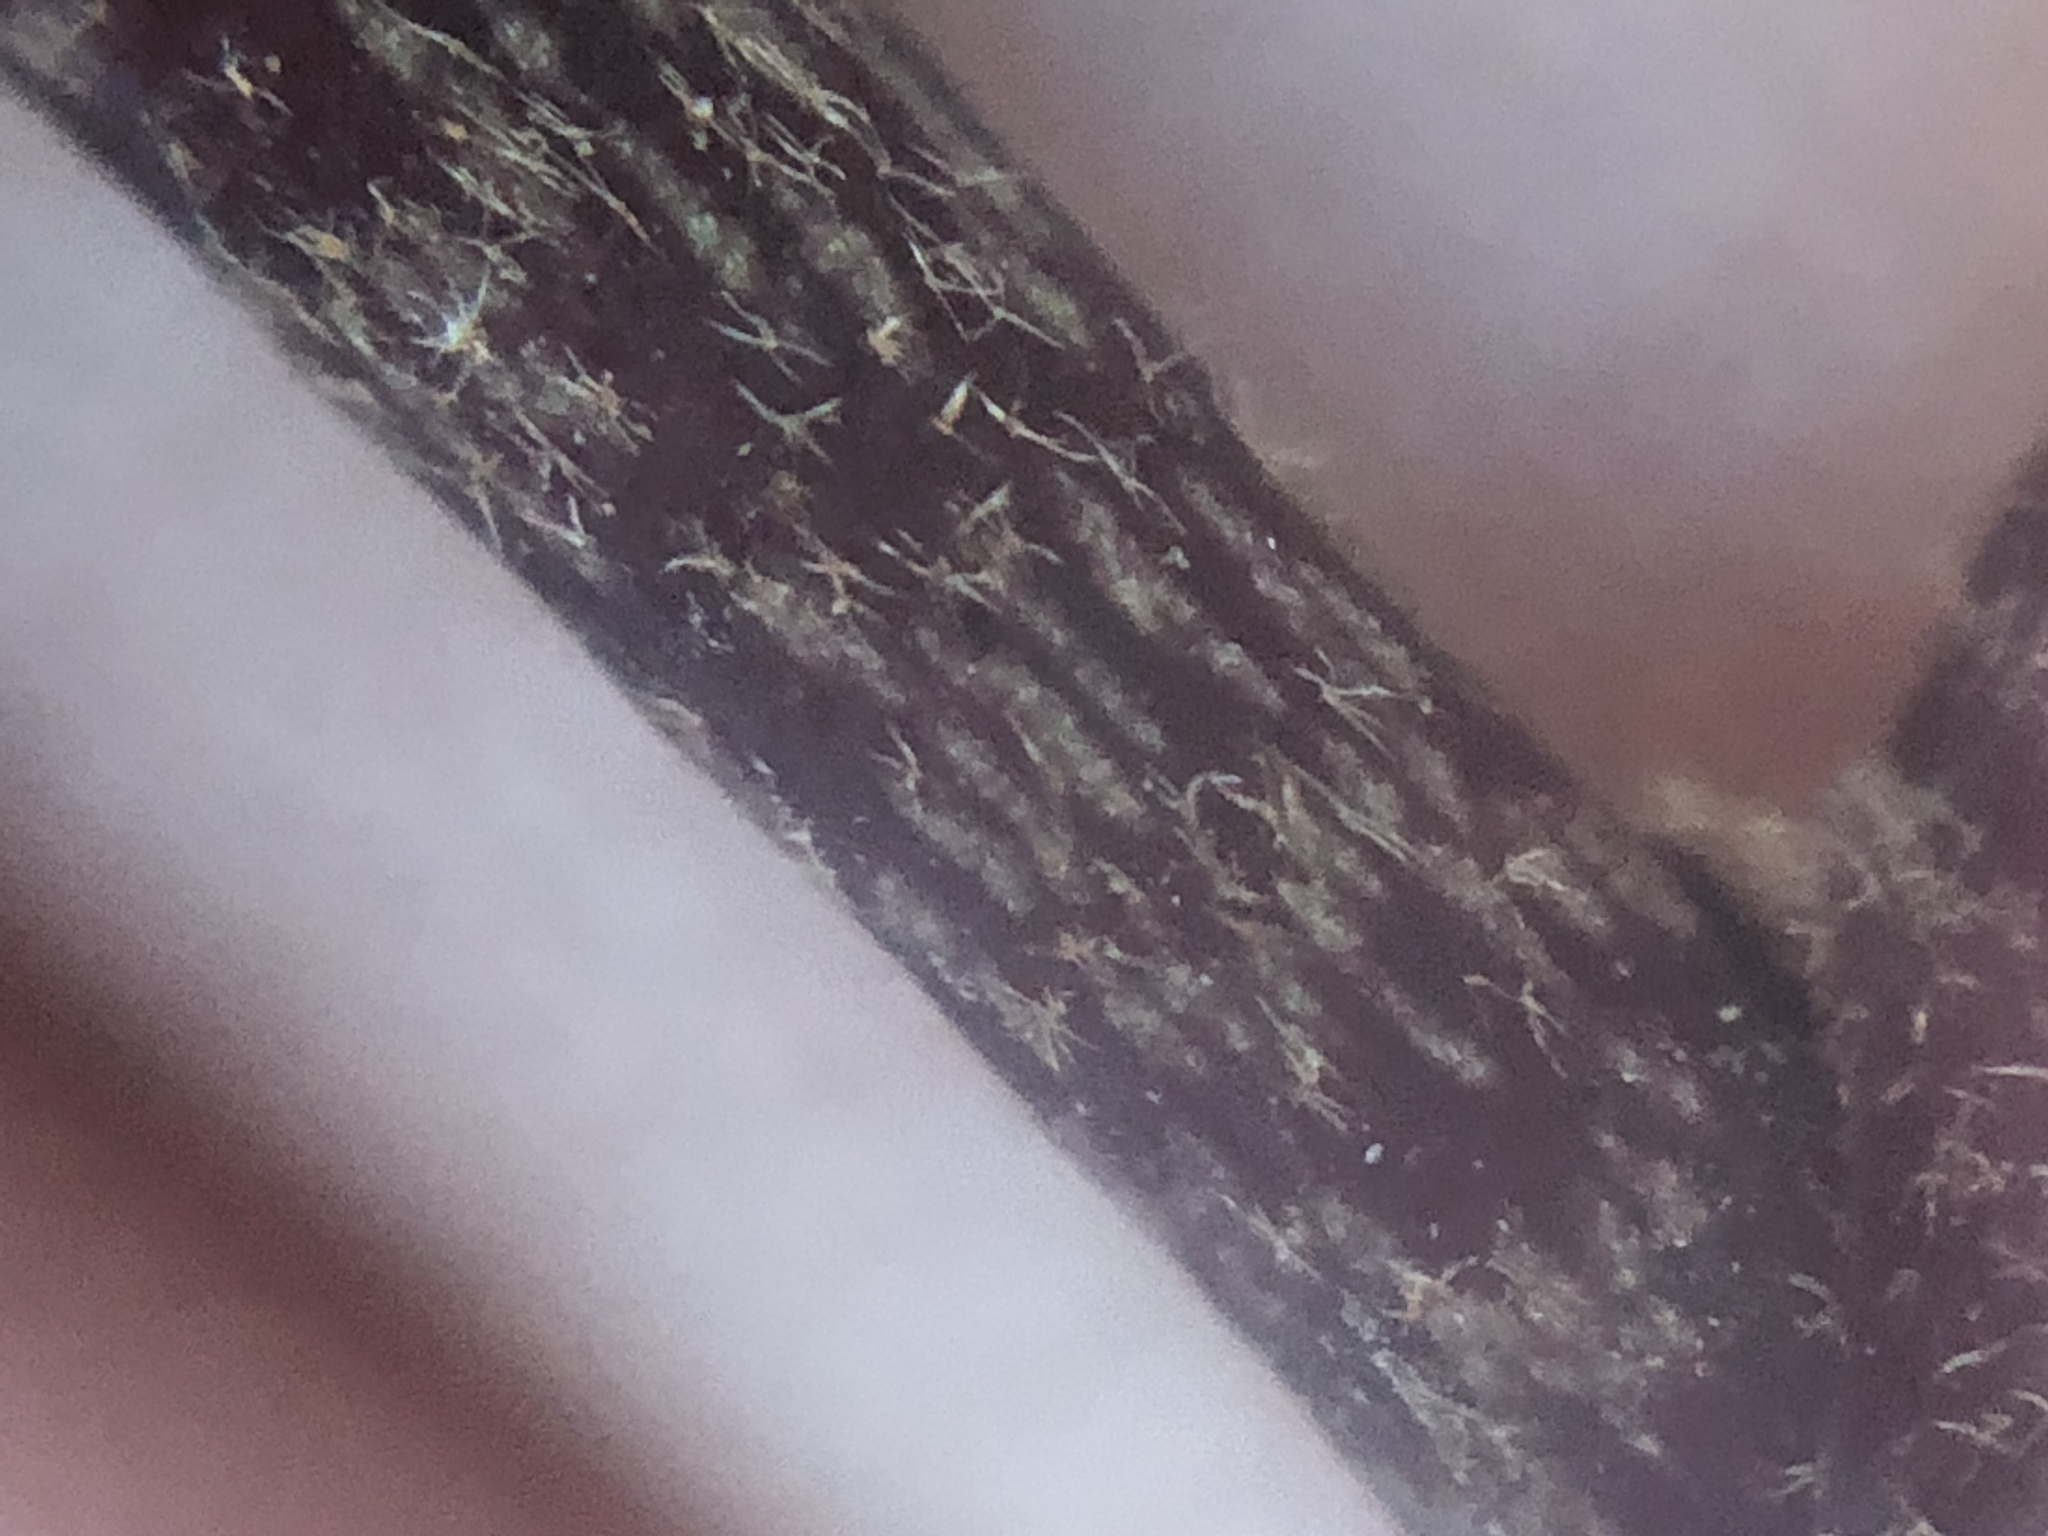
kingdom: Plantae
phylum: Tracheophyta
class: Magnoliopsida
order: Apiales
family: Araliaceae
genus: Hedera
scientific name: Hedera helix
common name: Ivy
